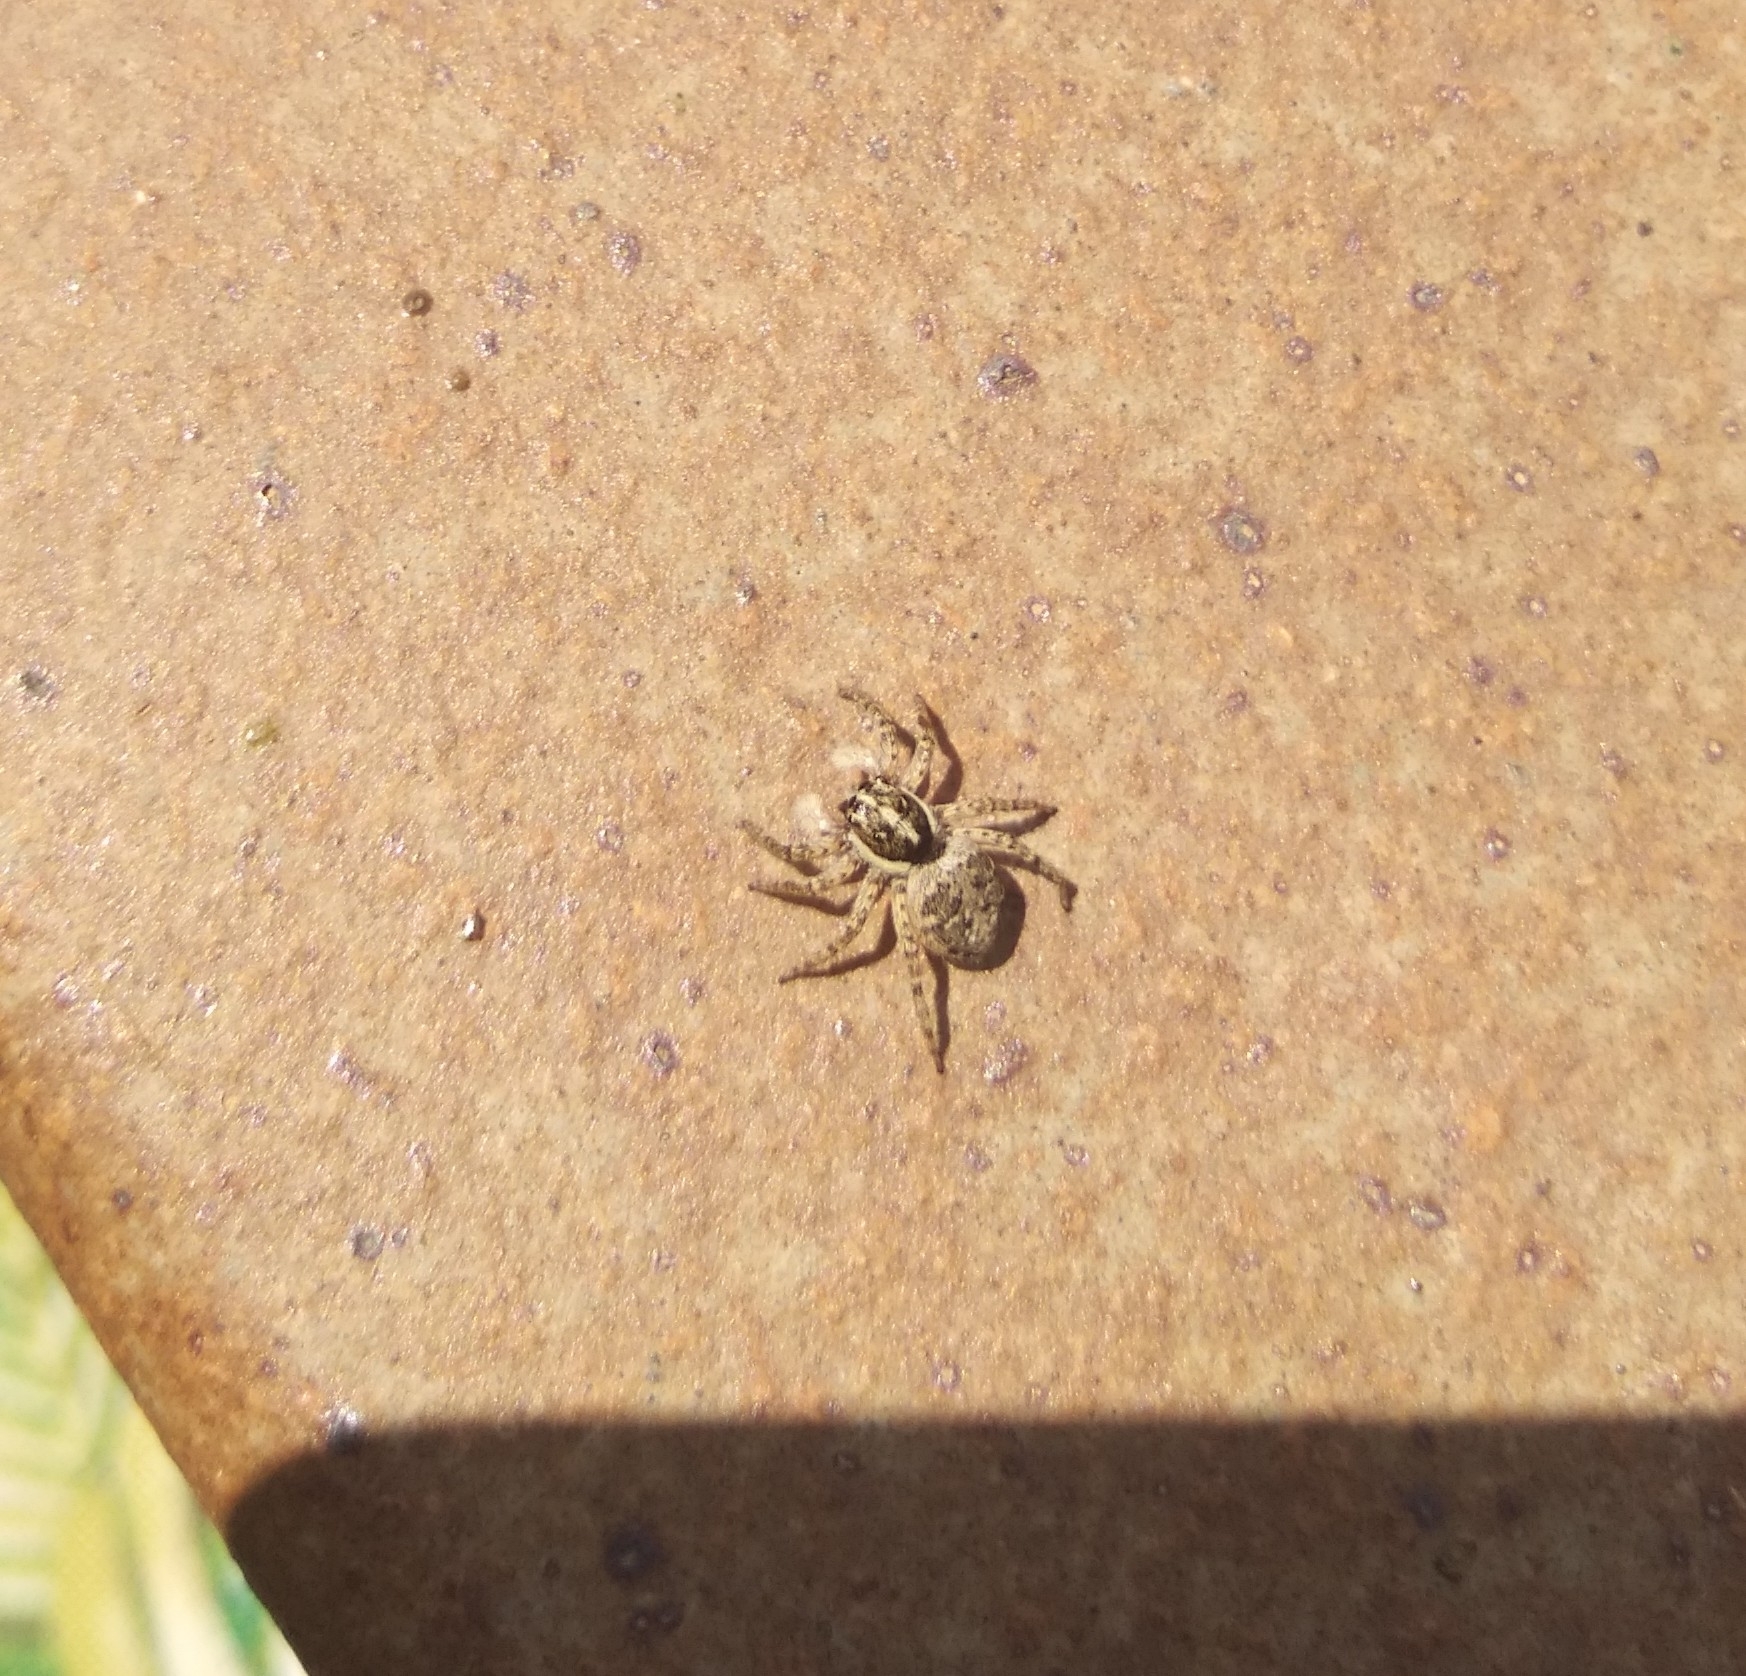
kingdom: Animalia
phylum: Arthropoda
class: Arachnida
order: Araneae
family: Salticidae
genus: Menemerus
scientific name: Menemerus semilimbatus
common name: Jumping spider
